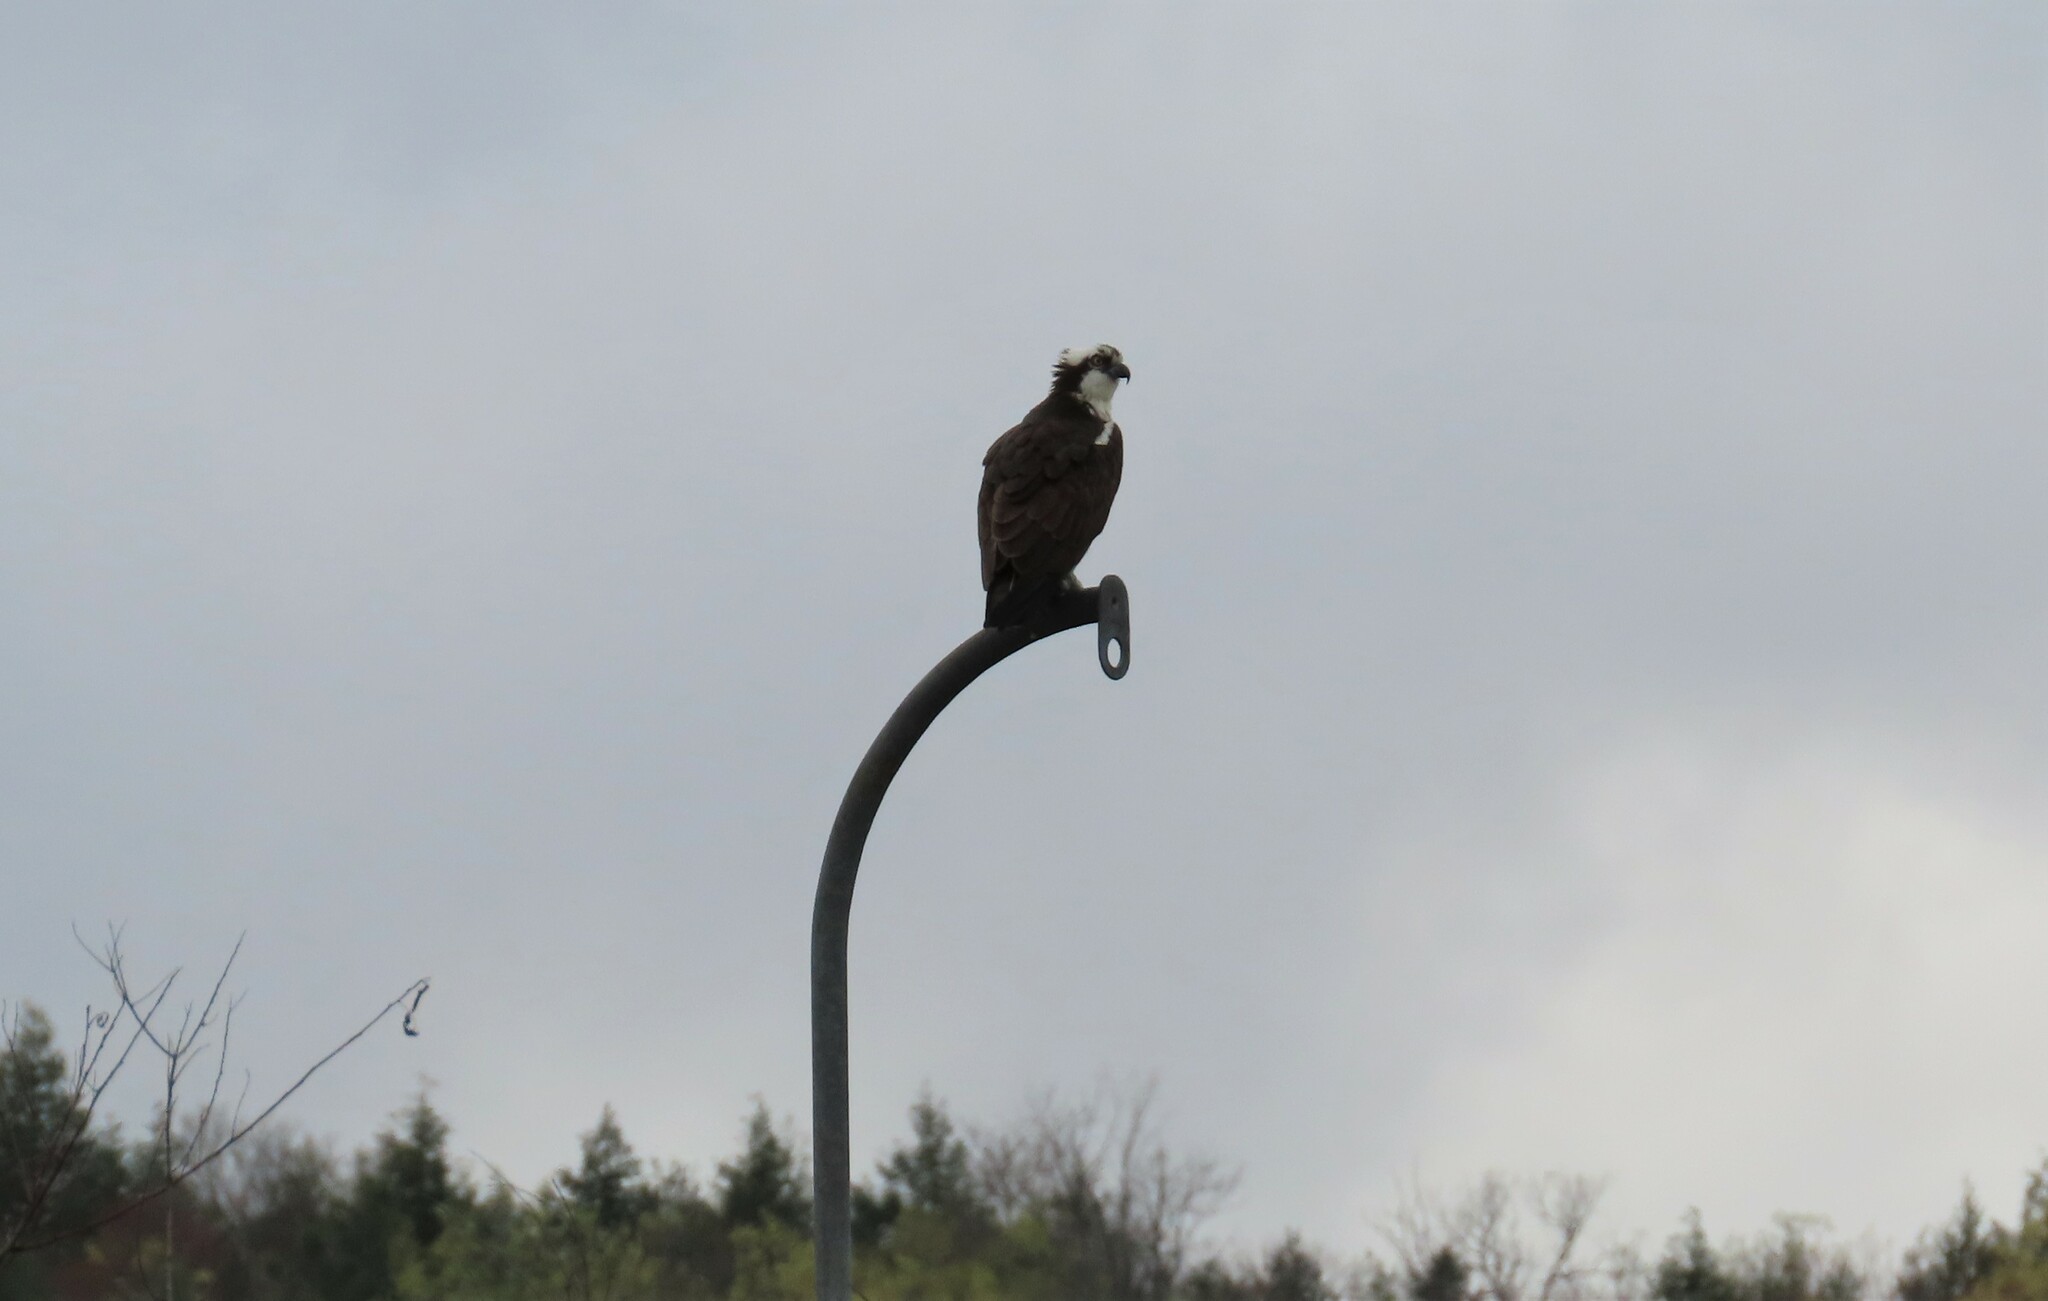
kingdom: Animalia
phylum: Chordata
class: Aves
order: Accipitriformes
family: Pandionidae
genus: Pandion
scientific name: Pandion haliaetus
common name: Osprey
